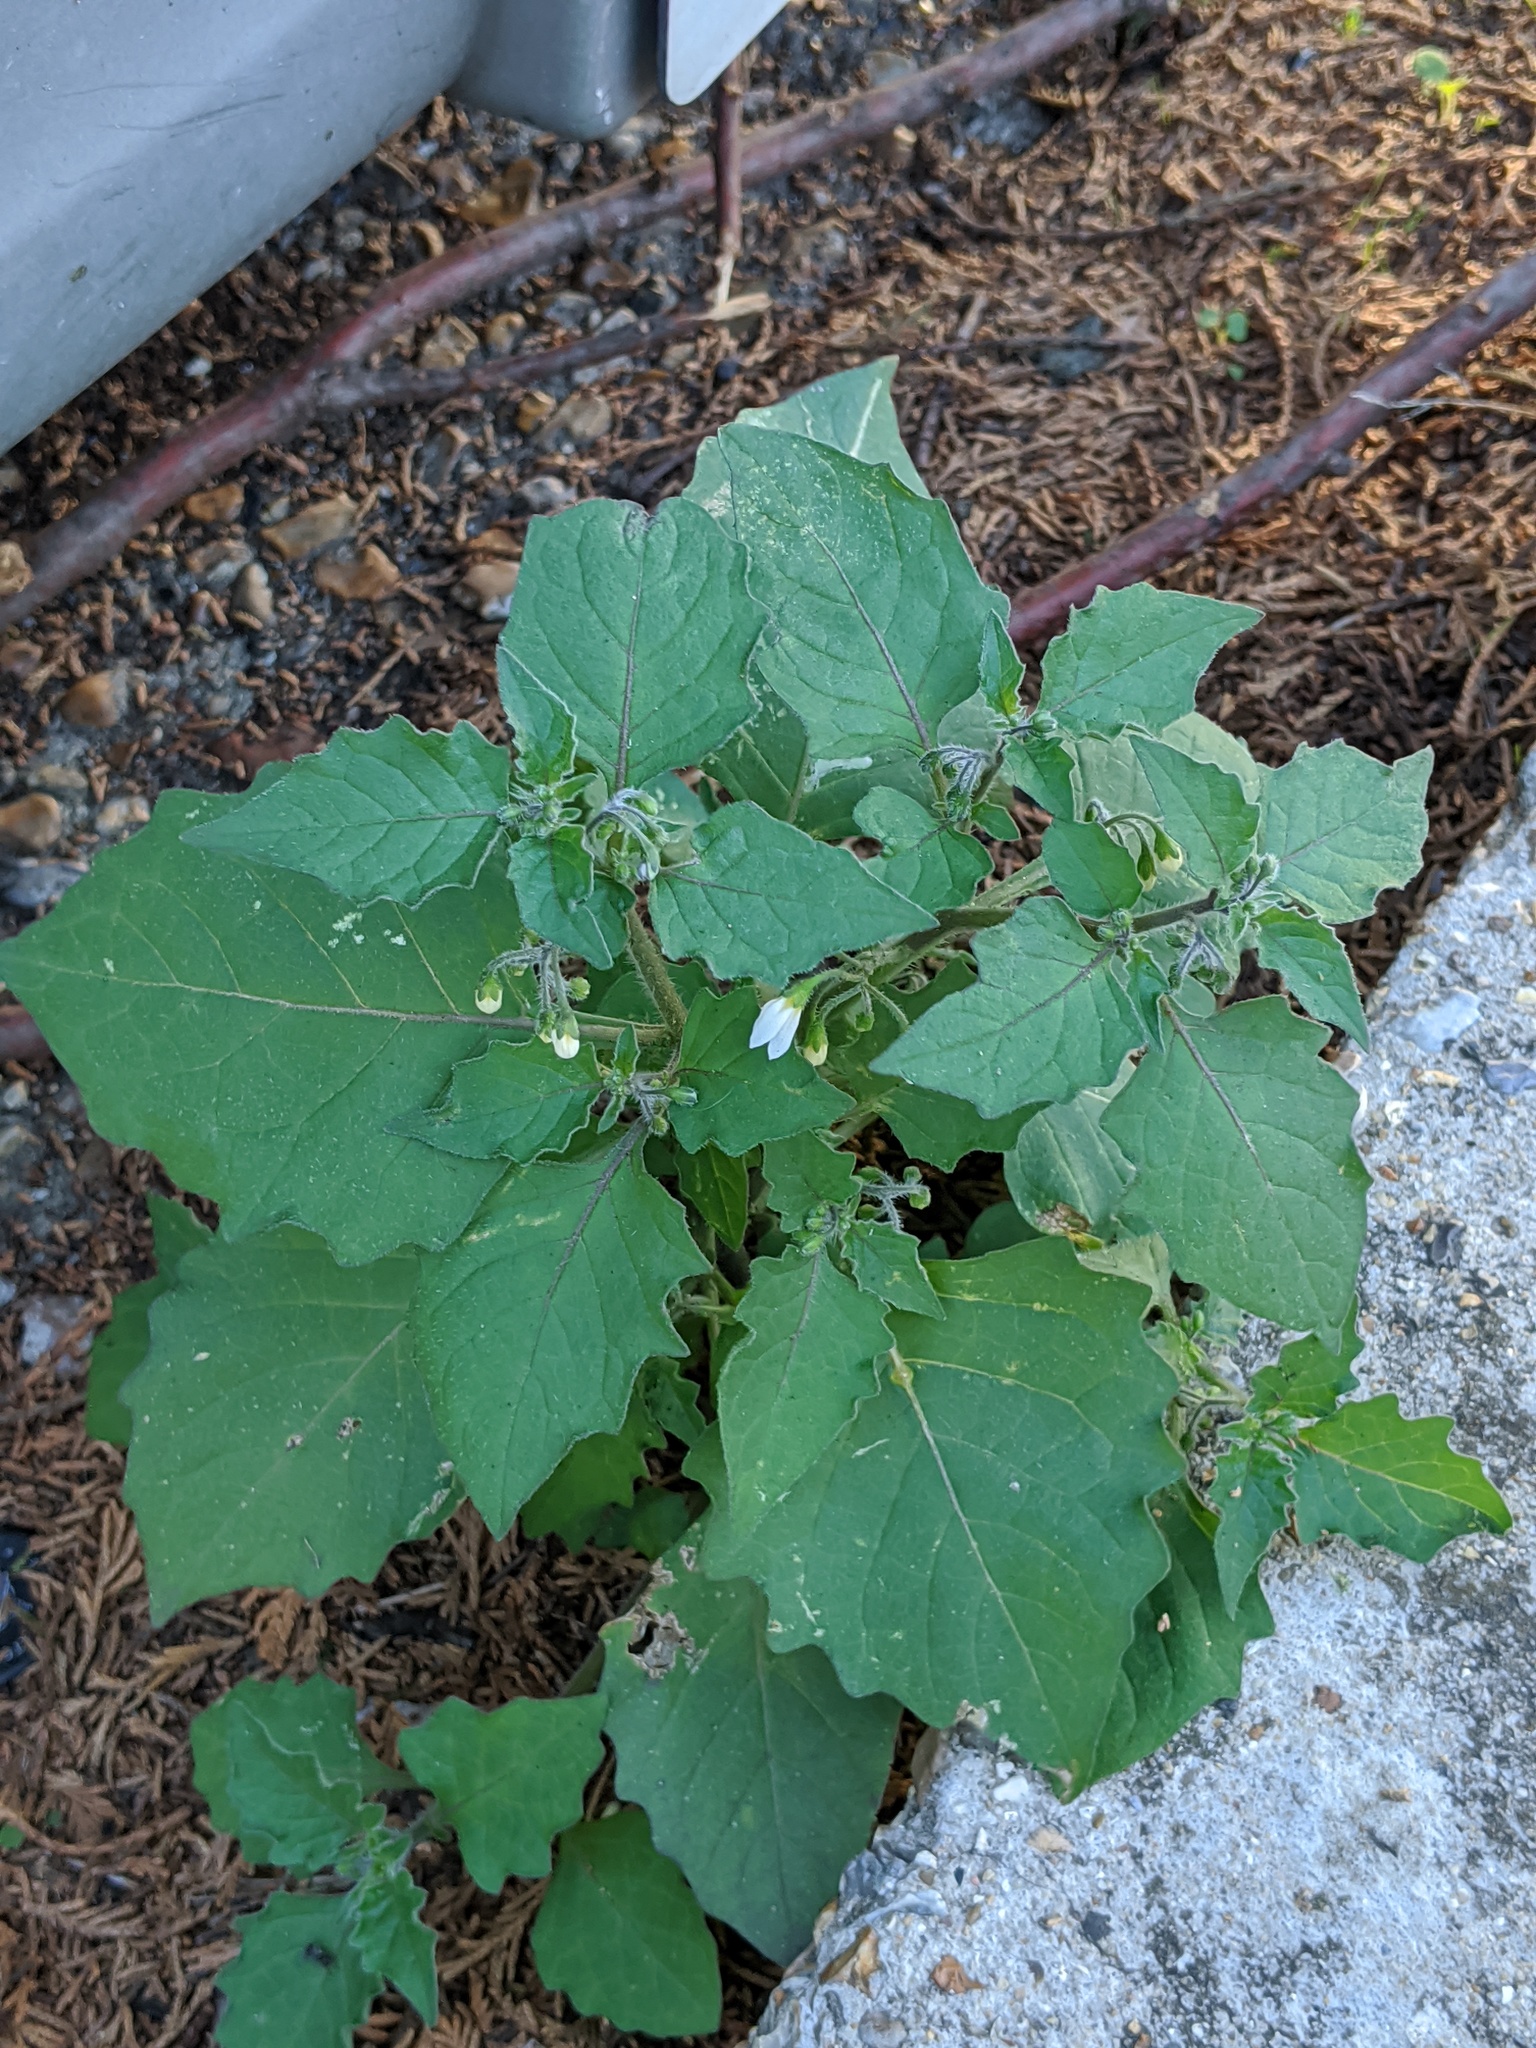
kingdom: Plantae
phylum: Tracheophyta
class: Magnoliopsida
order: Solanales
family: Solanaceae
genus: Solanum
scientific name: Solanum nigrum
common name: Black nightshade
